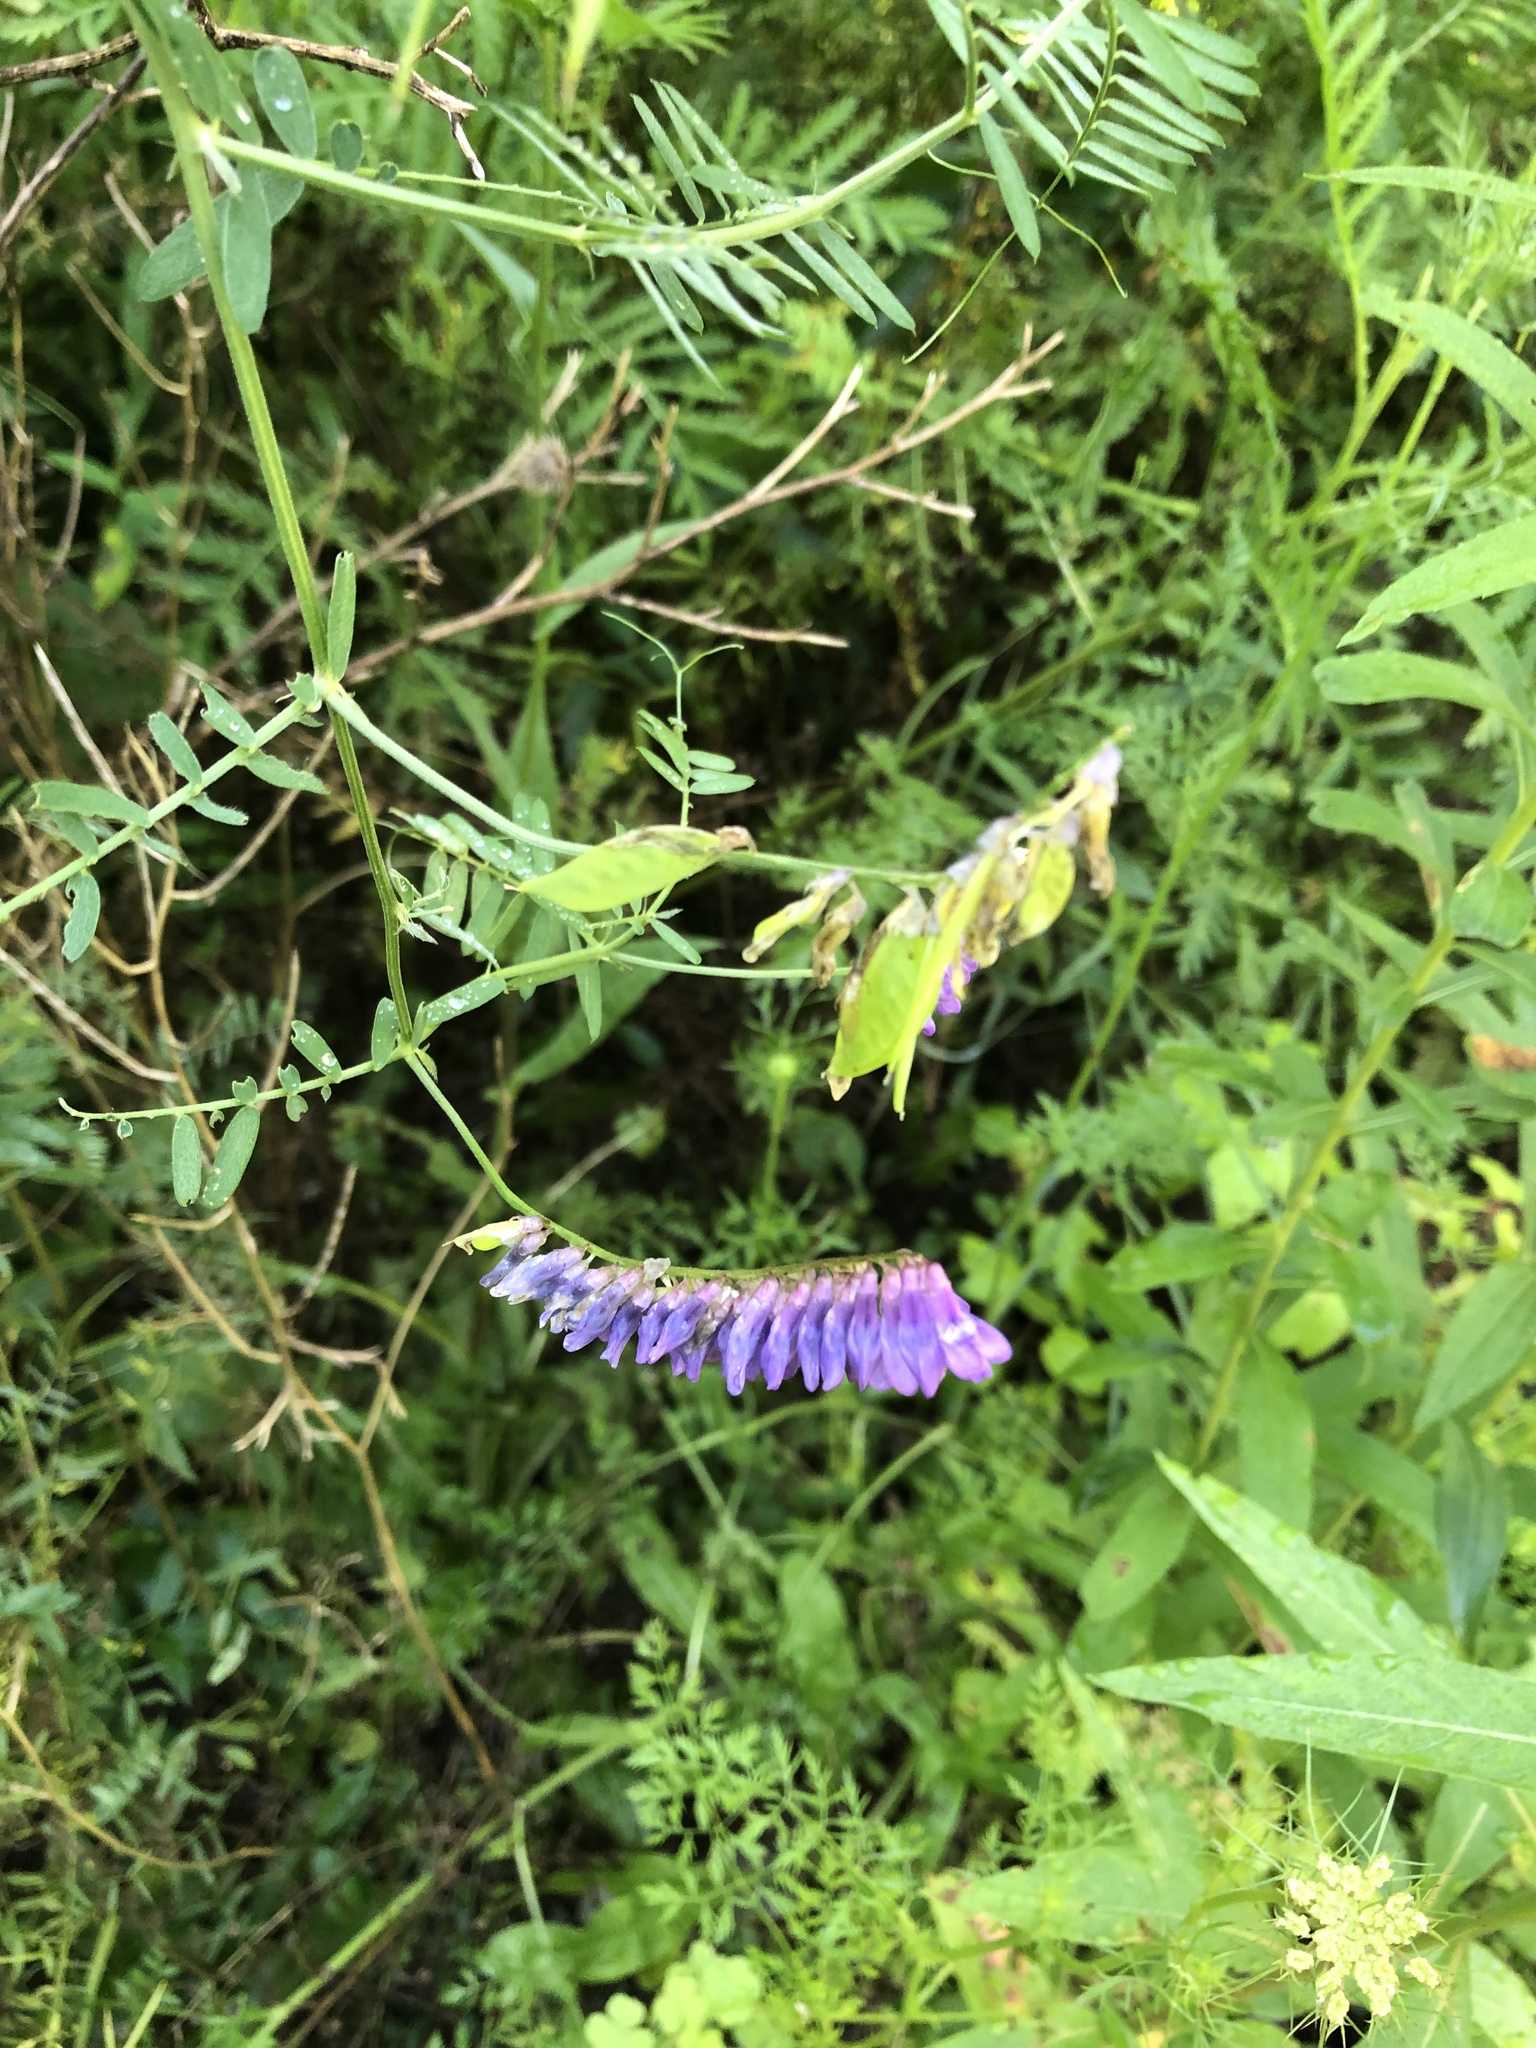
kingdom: Plantae
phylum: Tracheophyta
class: Magnoliopsida
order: Fabales
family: Fabaceae
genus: Vicia
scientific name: Vicia cracca
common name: Bird vetch
